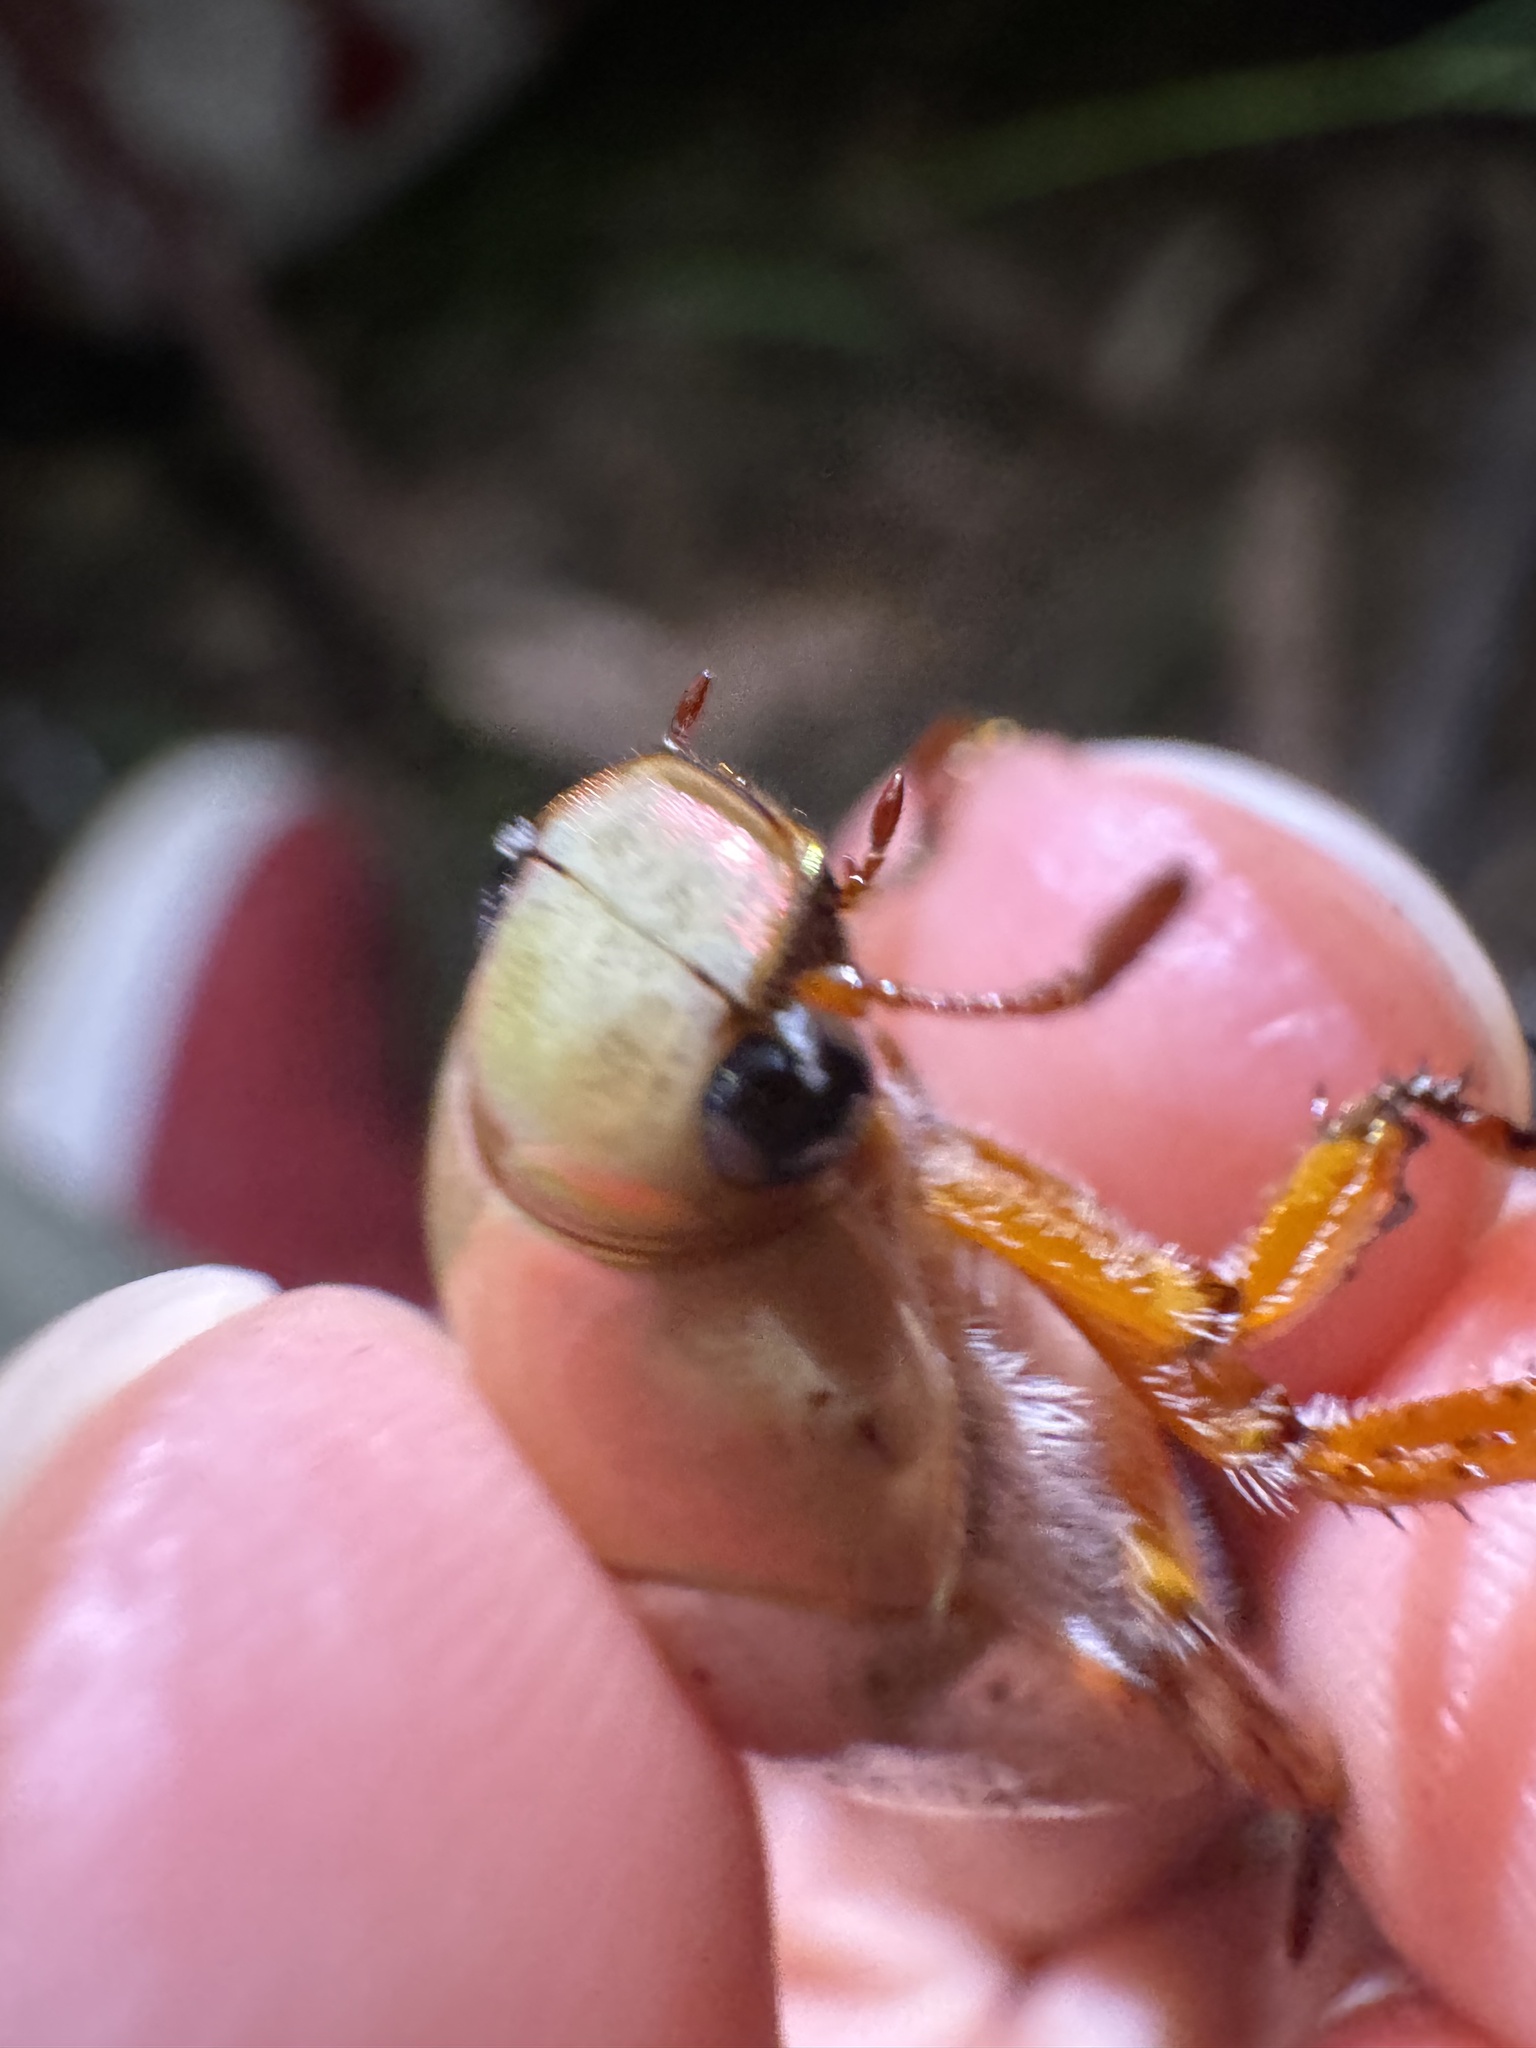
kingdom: Animalia
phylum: Arthropoda
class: Insecta
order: Coleoptera
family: Scarabaeidae
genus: Anoplognathus
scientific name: Anoplognathus porosus
